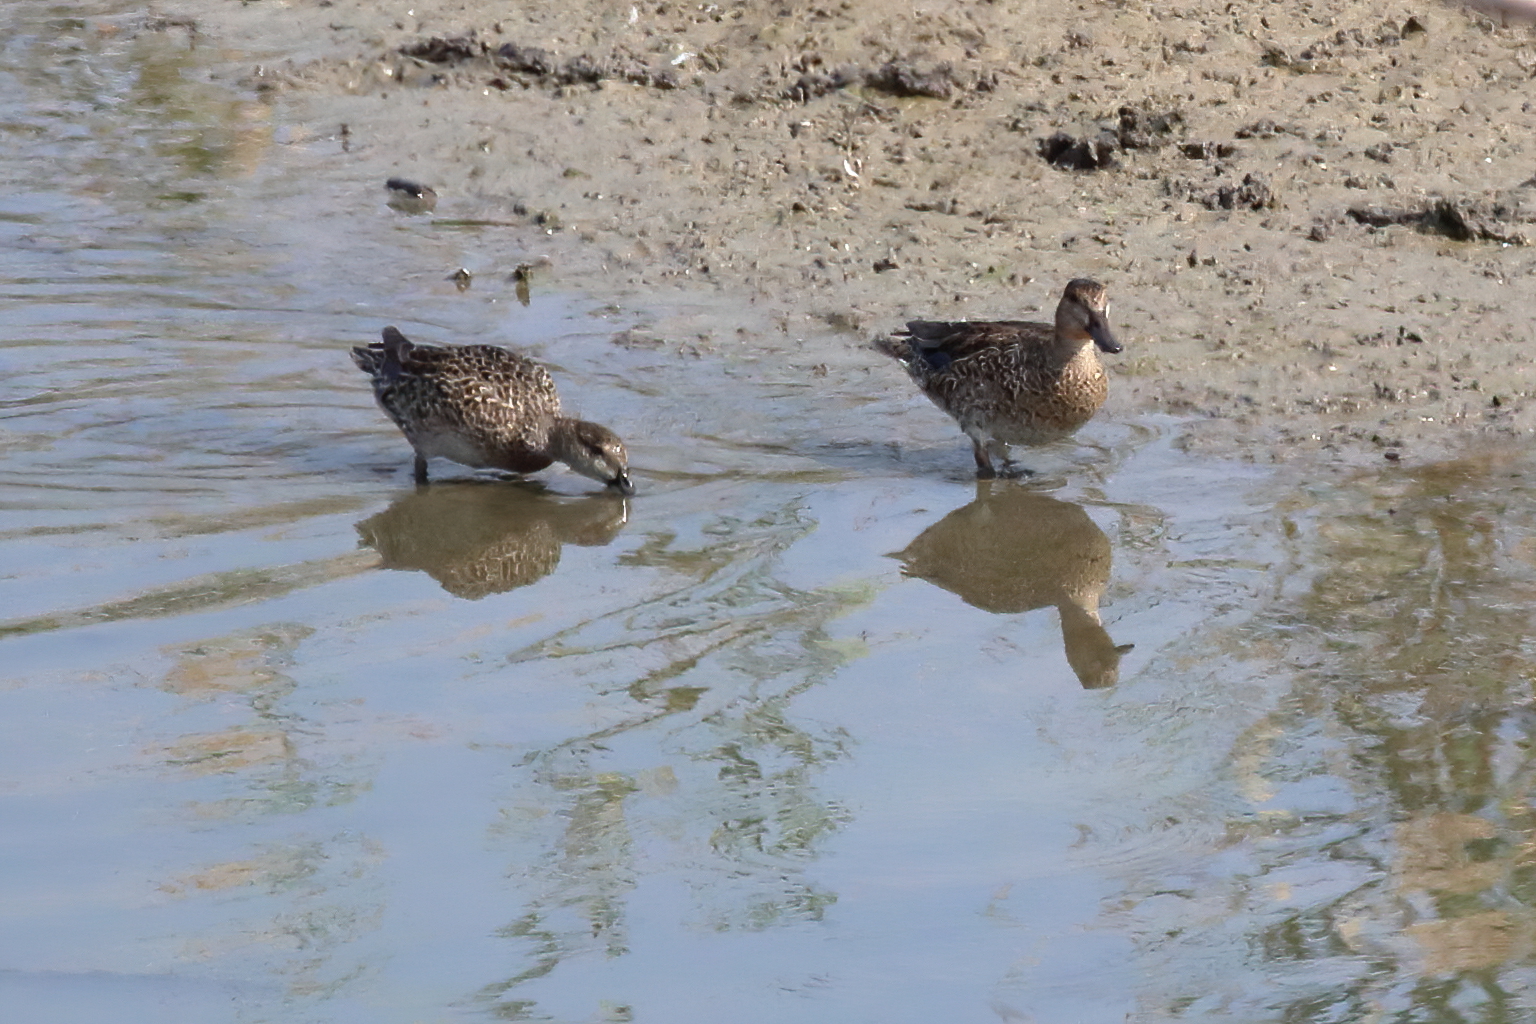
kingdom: Animalia
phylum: Chordata
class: Aves
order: Anseriformes
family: Anatidae
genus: Spatula
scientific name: Spatula discors
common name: Blue-winged teal
